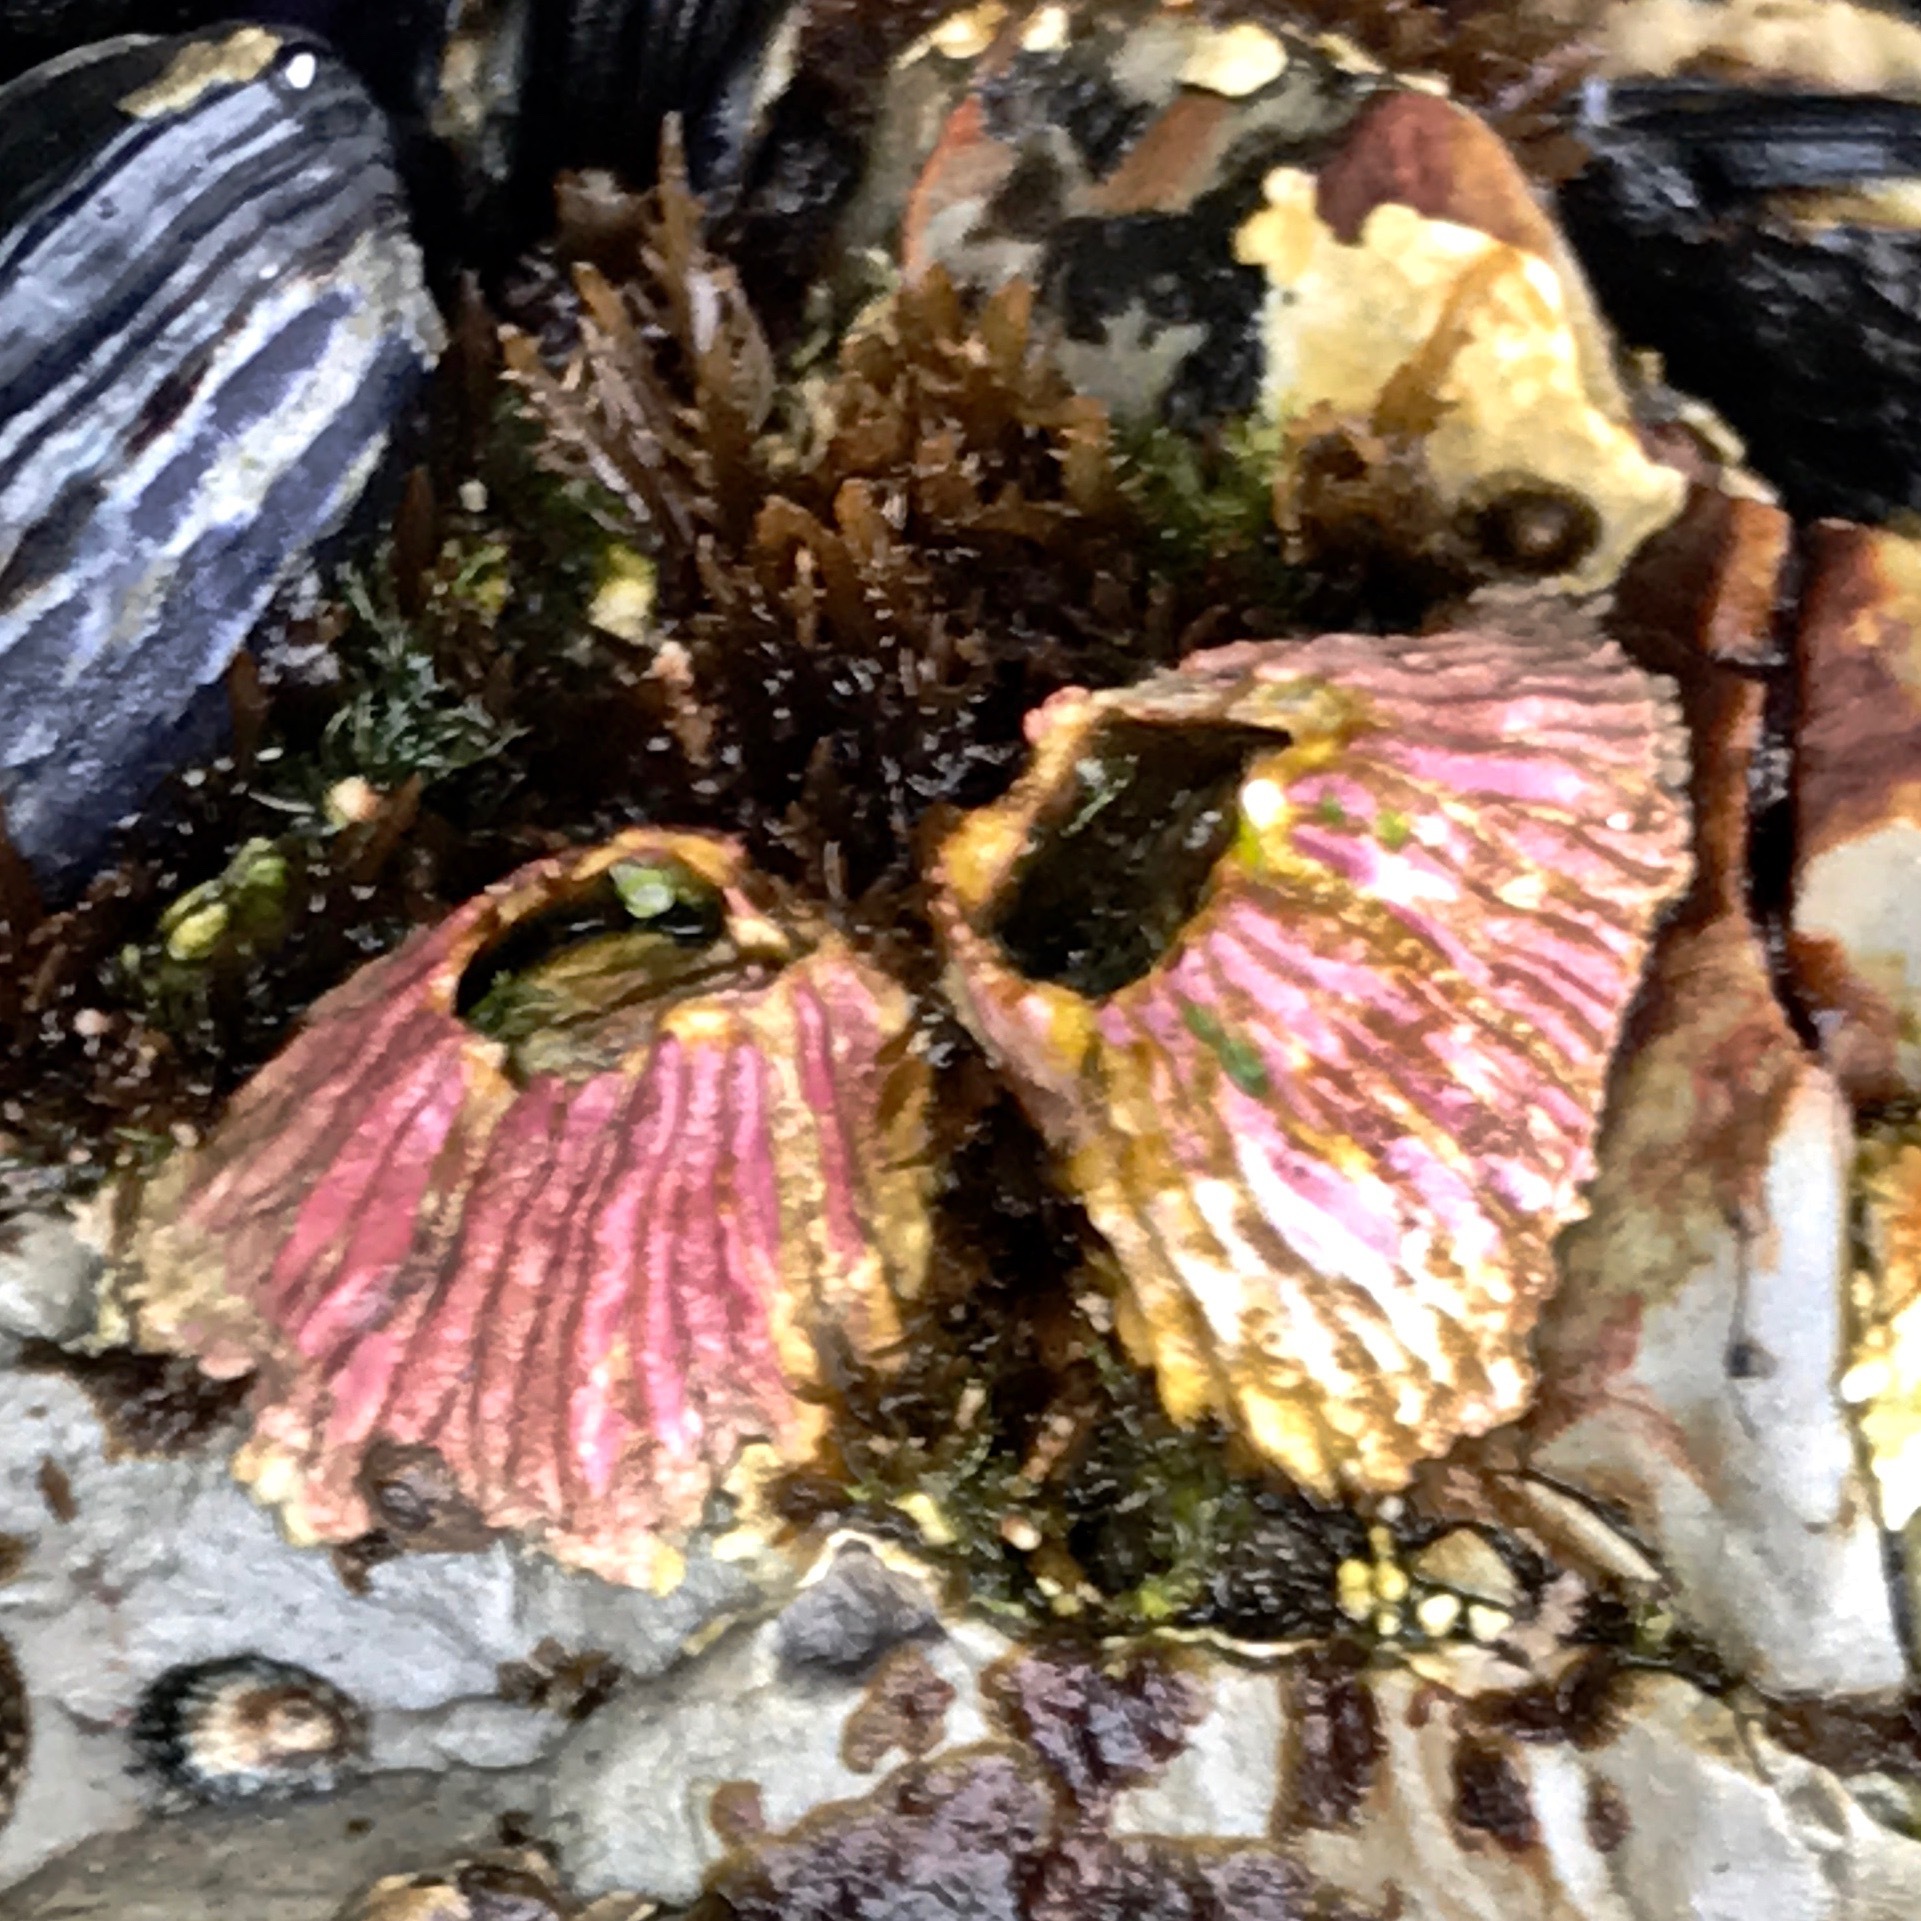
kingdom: Animalia
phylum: Arthropoda
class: Maxillopoda
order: Sessilia
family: Tetraclitidae
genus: Tetraclita
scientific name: Tetraclita rubescens
